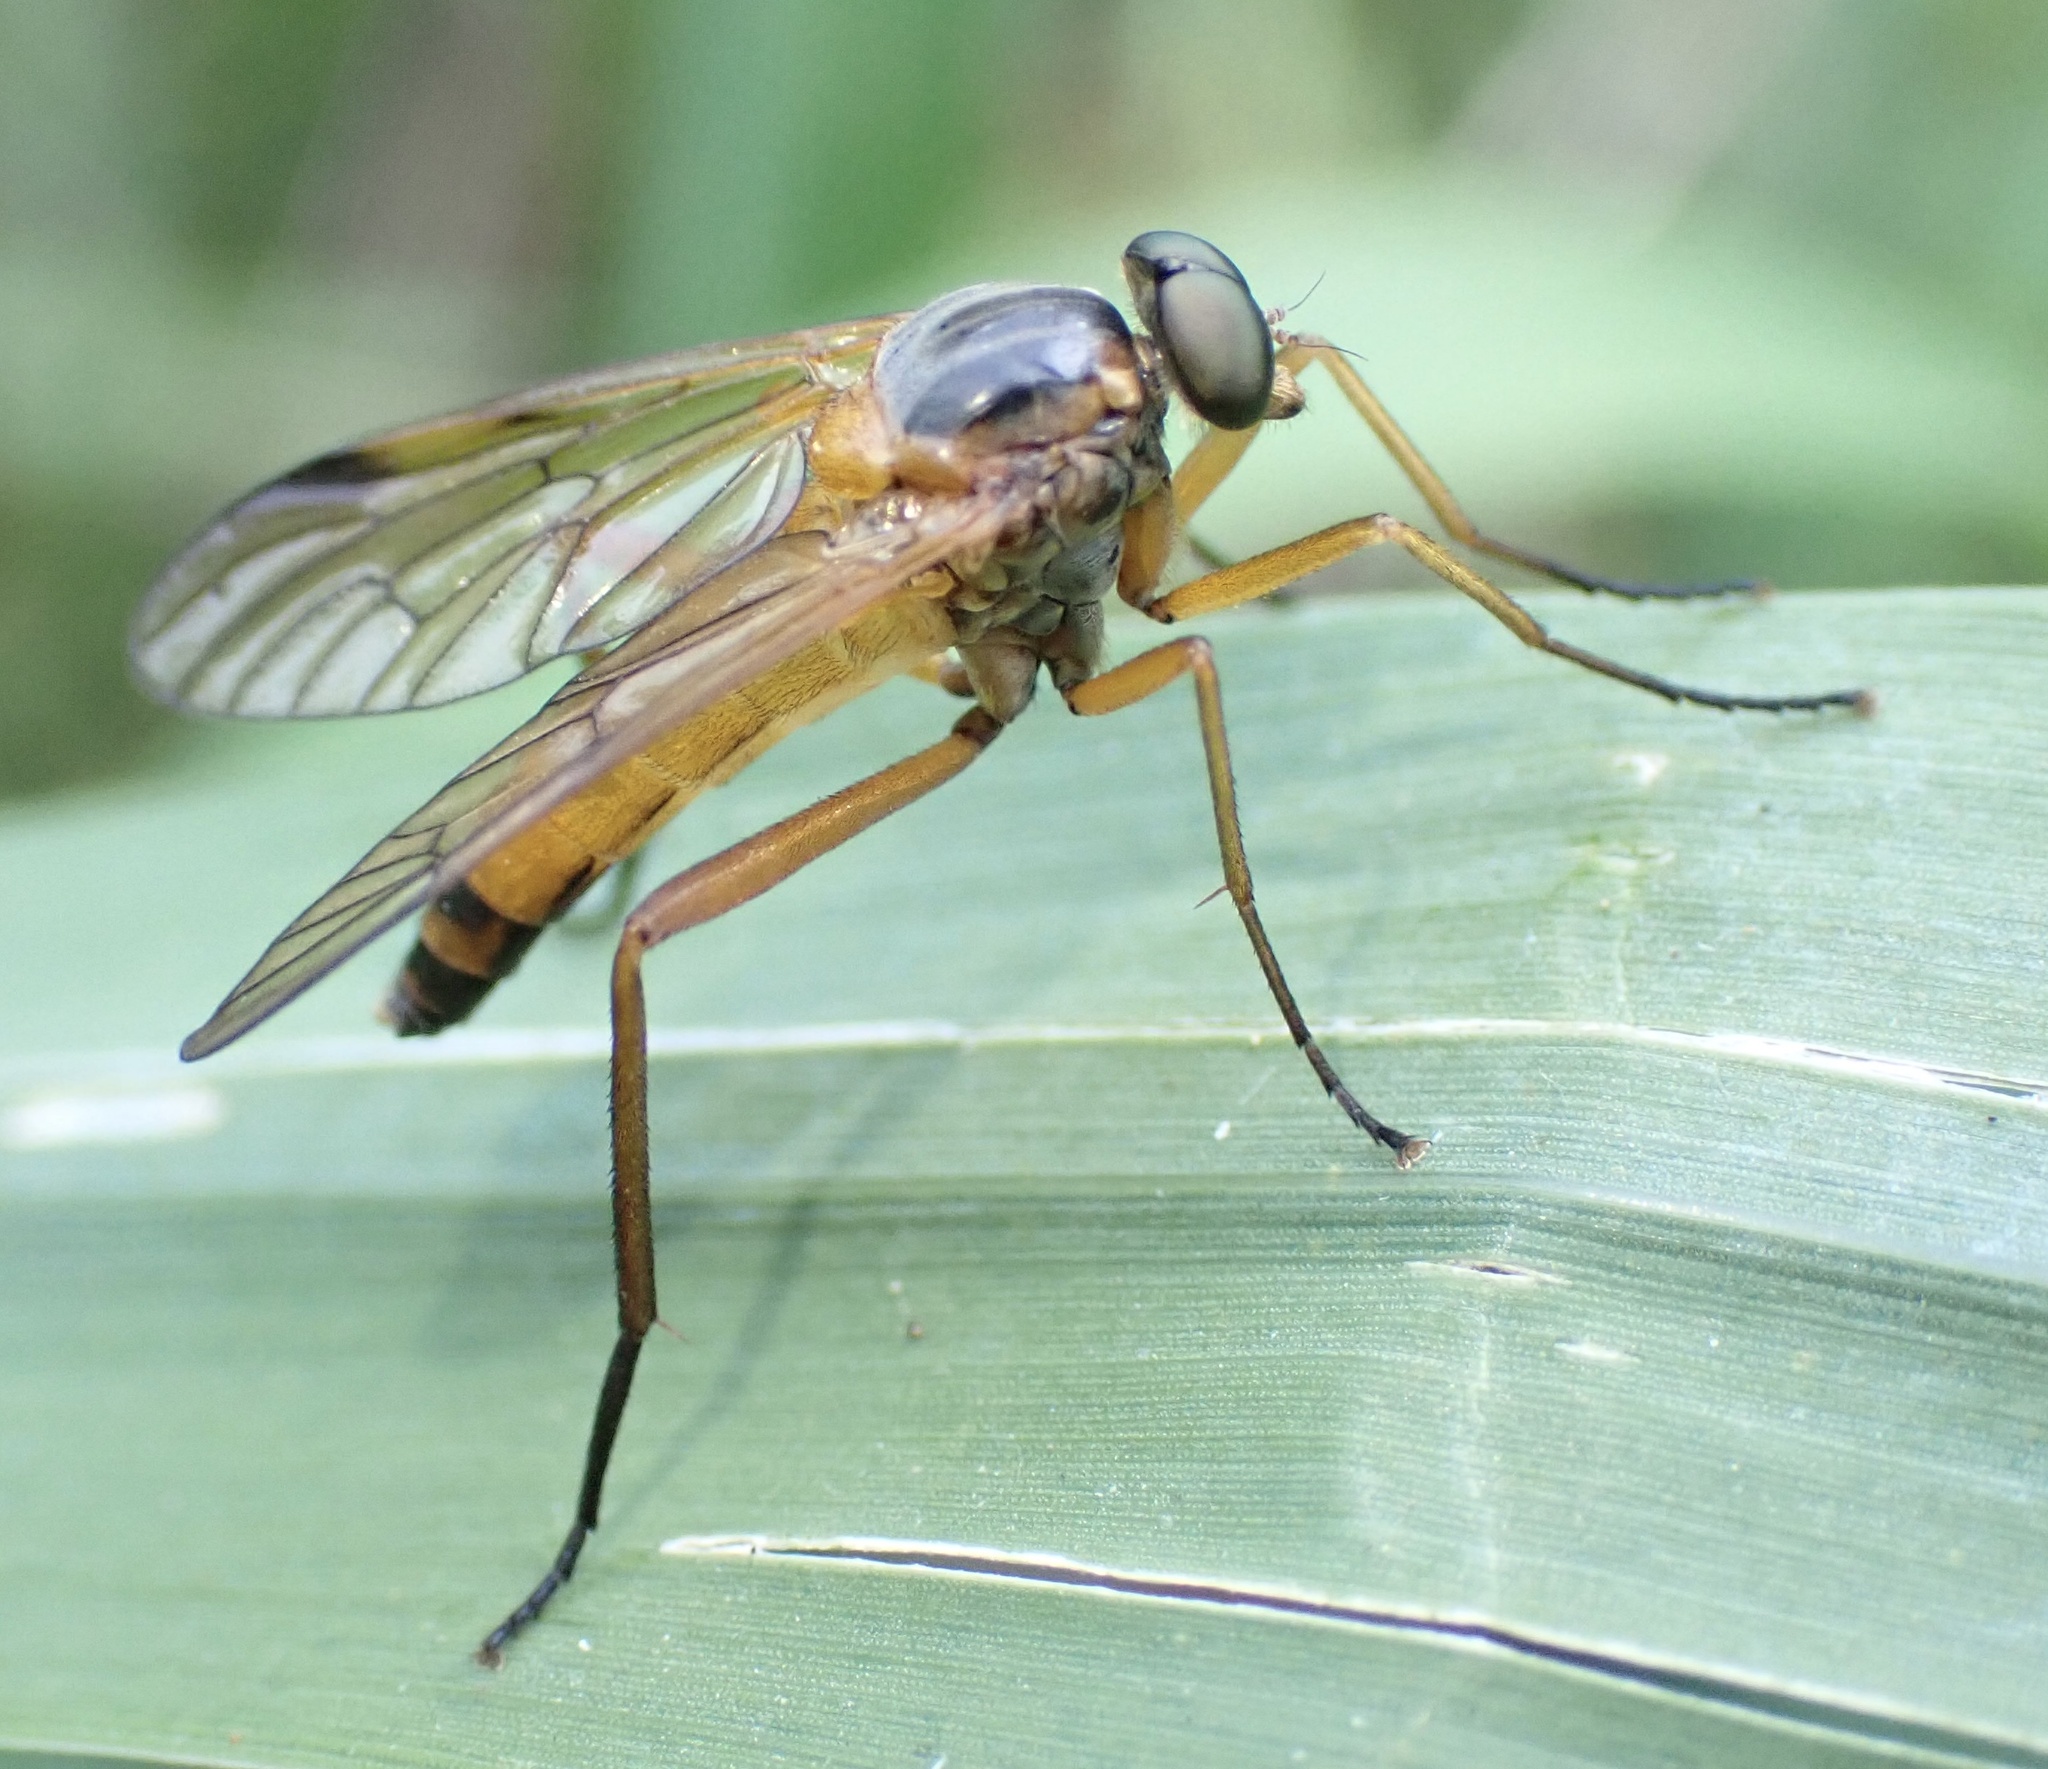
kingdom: Animalia
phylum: Arthropoda
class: Insecta
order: Diptera
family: Rhagionidae
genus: Rhagio
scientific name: Rhagio immaculatus
